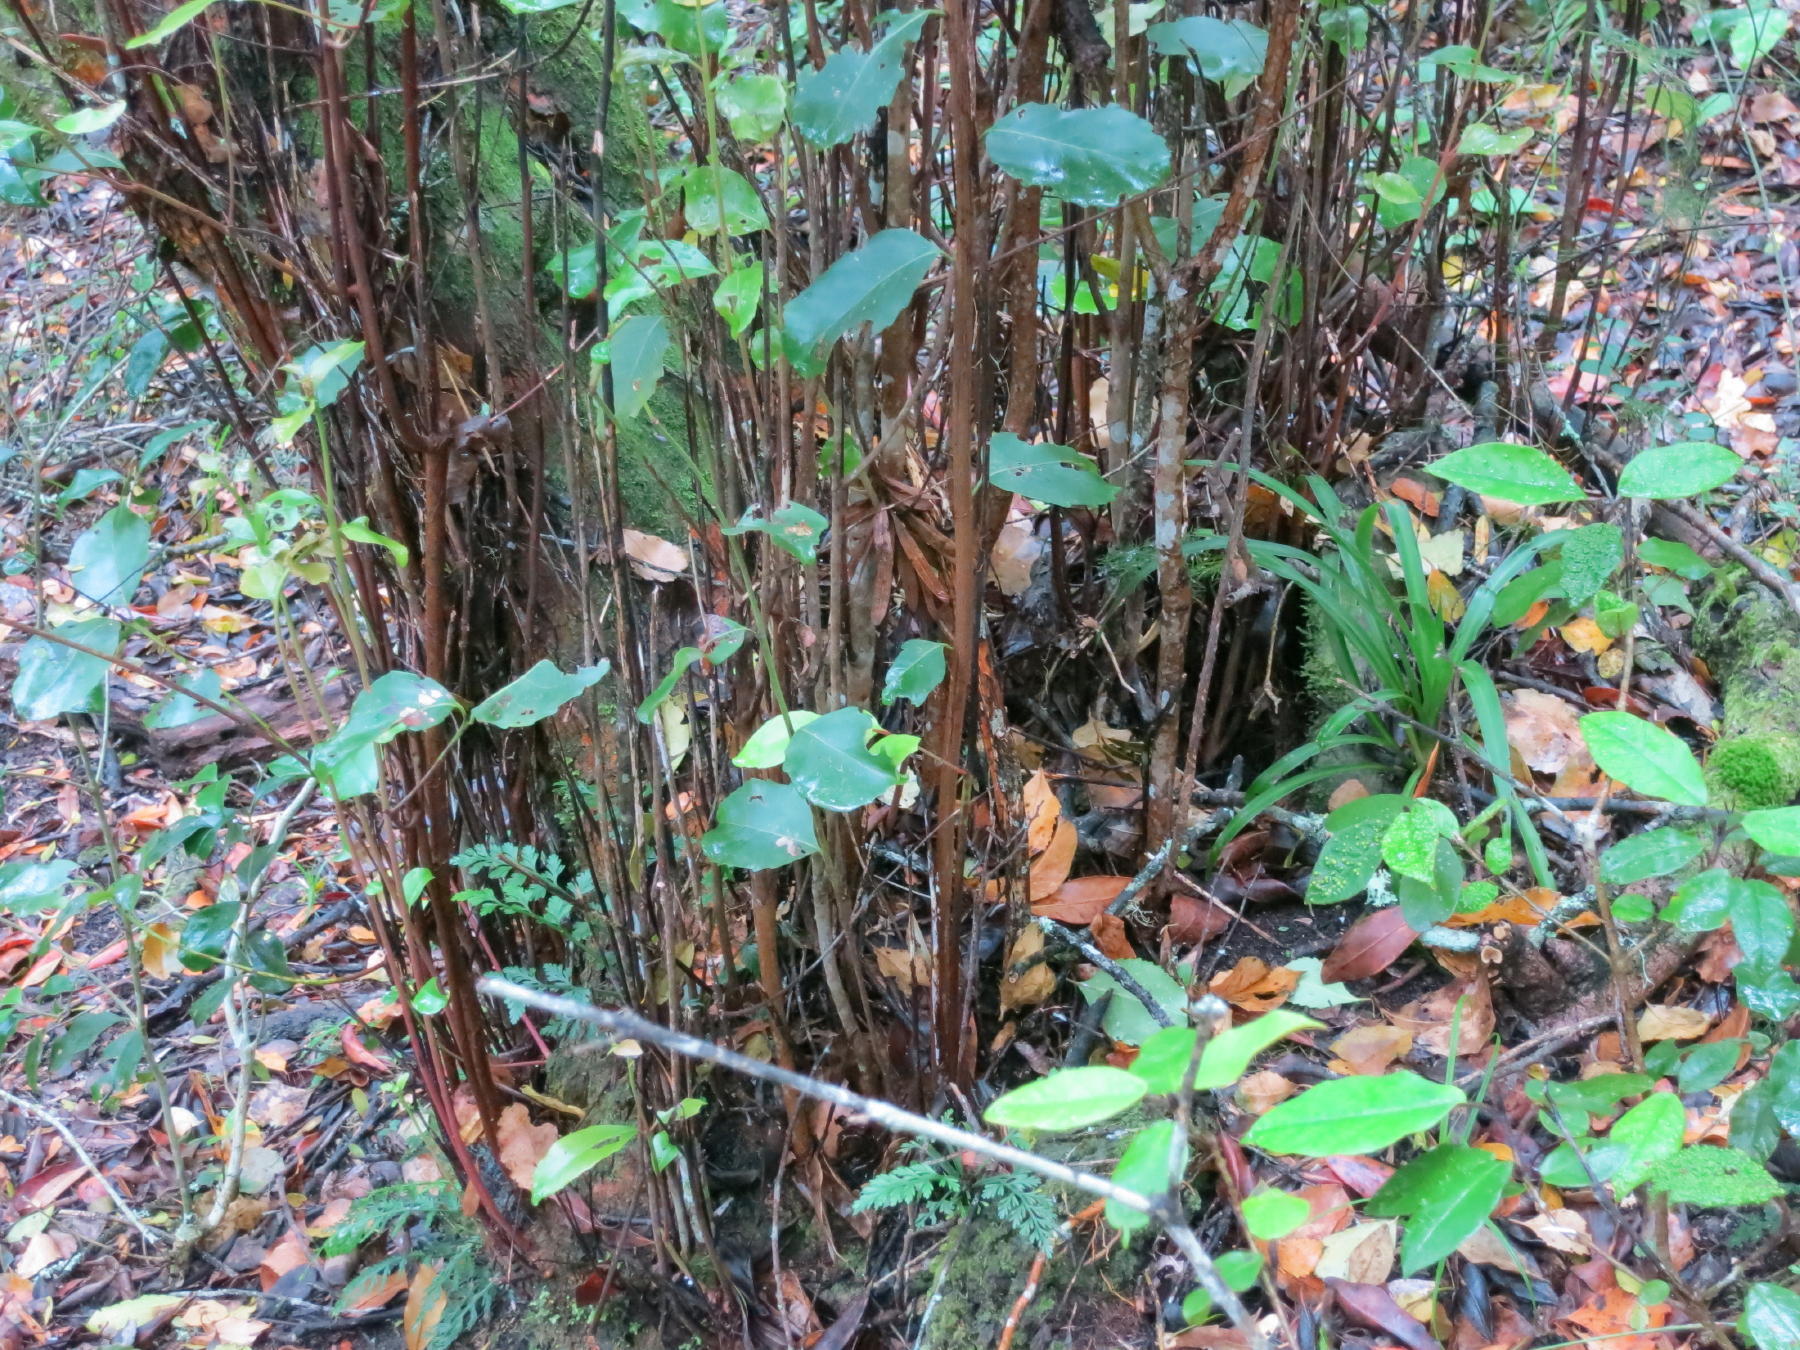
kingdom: Plantae
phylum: Tracheophyta
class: Magnoliopsida
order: Celastrales
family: Celastraceae
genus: Cassine
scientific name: Cassine peragua
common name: Cape saffron
